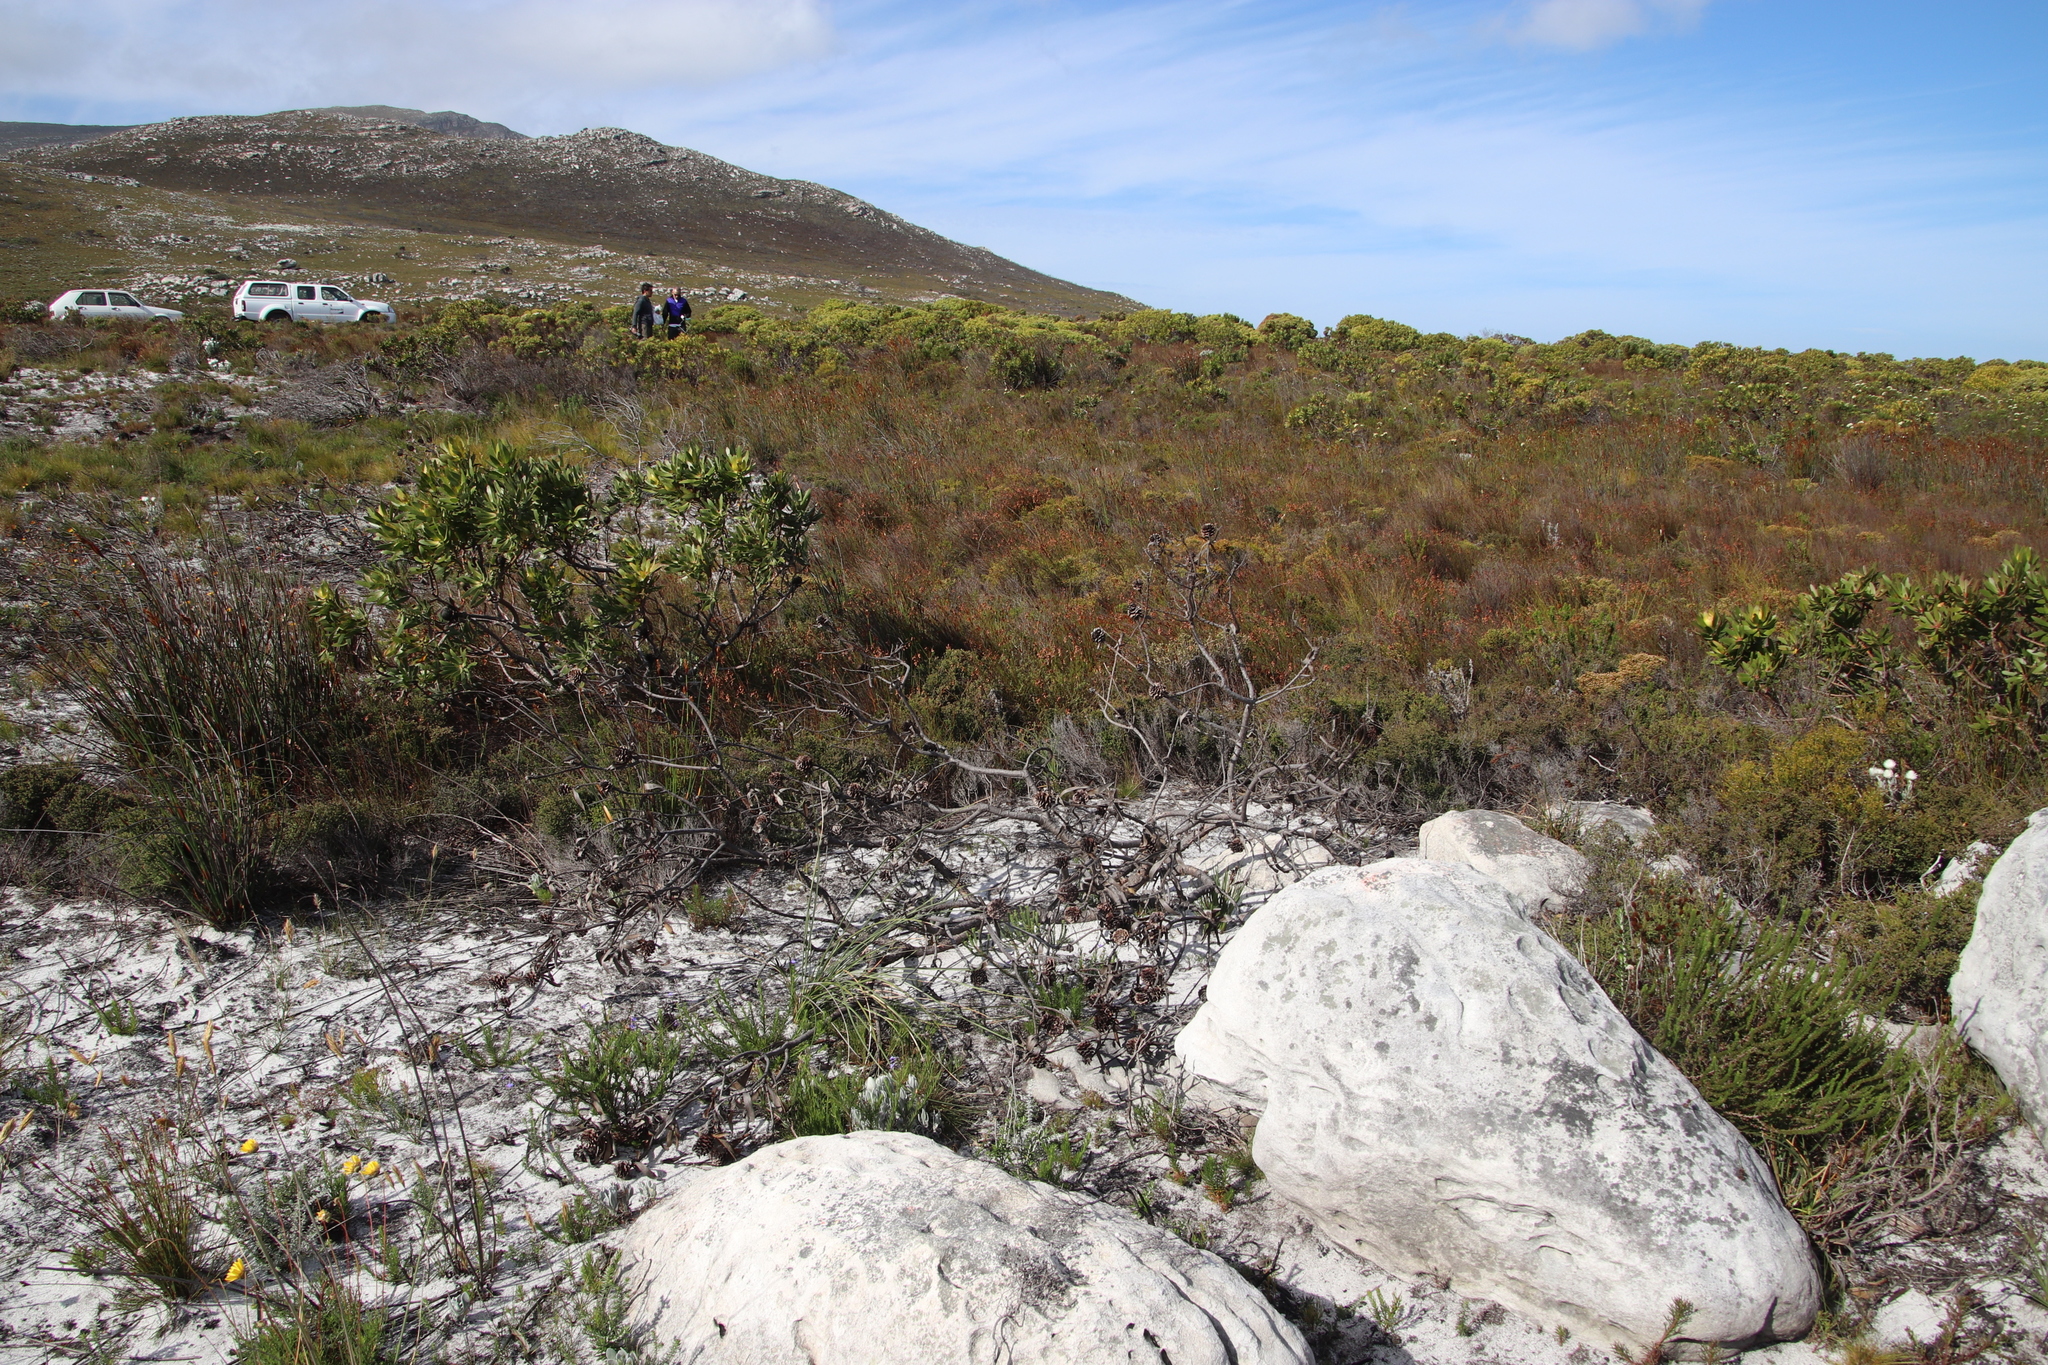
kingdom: Plantae
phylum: Tracheophyta
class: Magnoliopsida
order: Proteales
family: Proteaceae
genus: Leucadendron
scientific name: Leucadendron laureolum
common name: Golden sunshinebush
